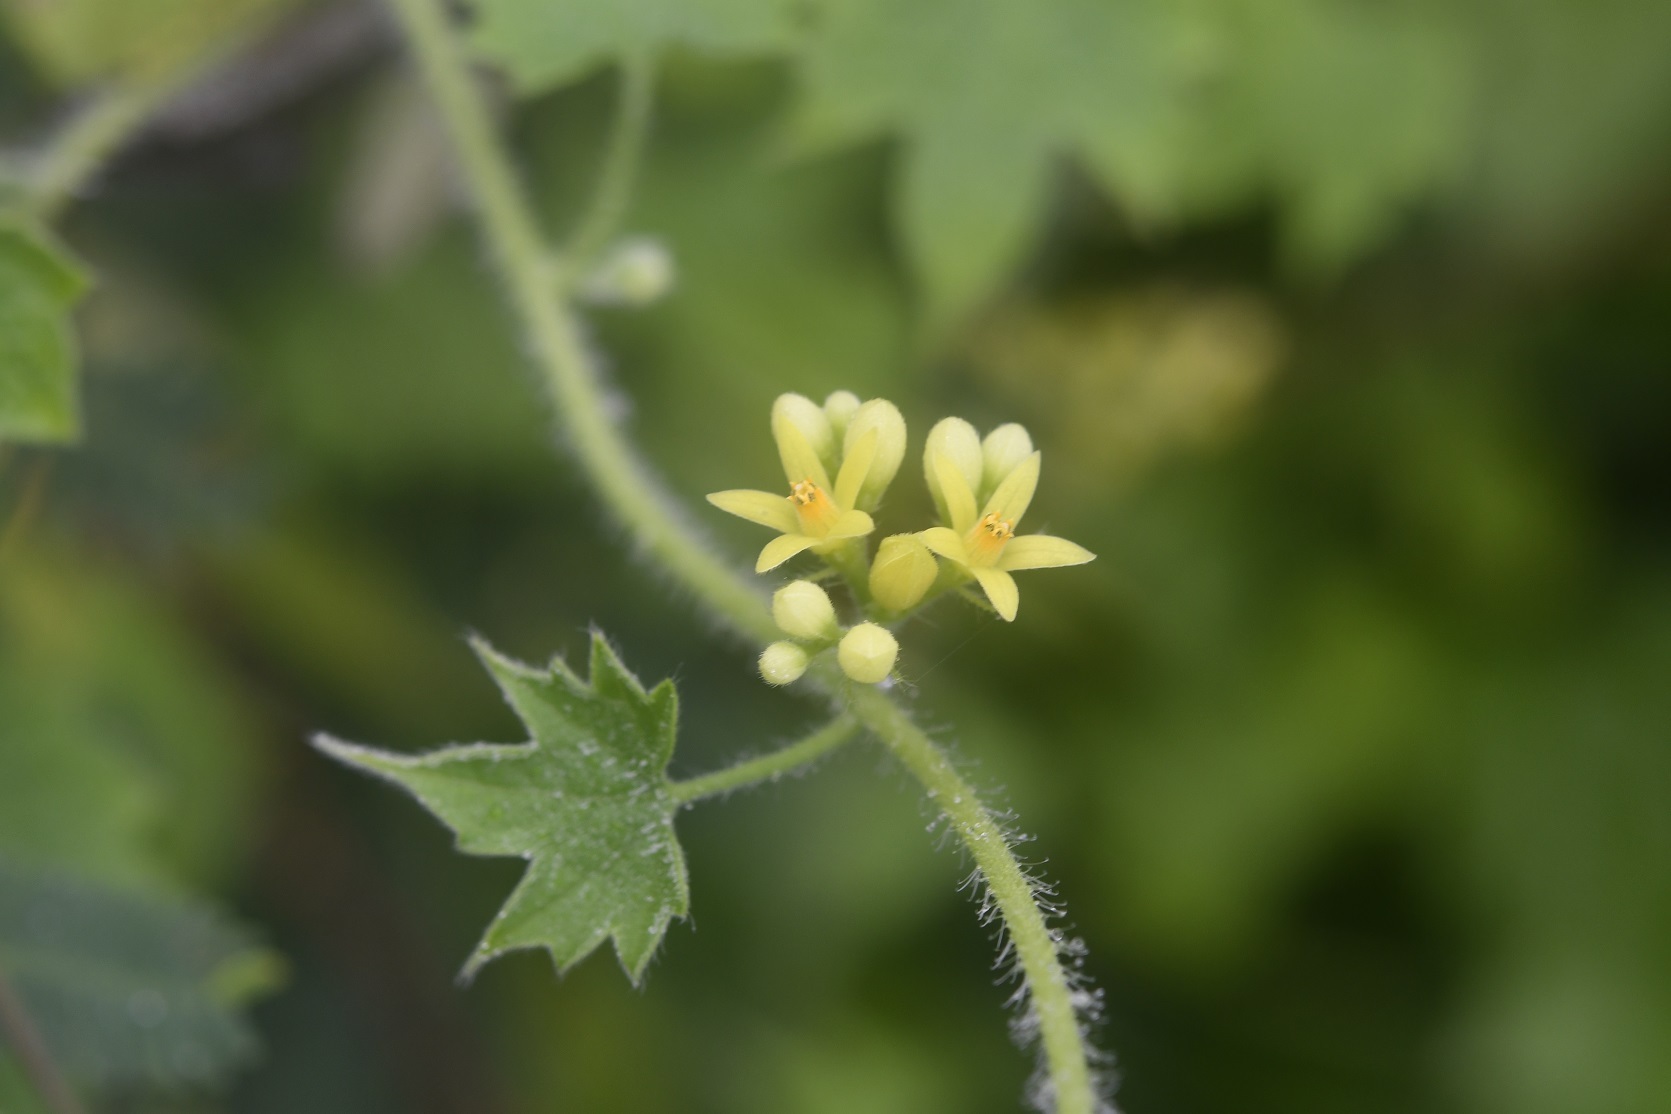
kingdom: Plantae
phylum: Tracheophyta
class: Magnoliopsida
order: Cornales
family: Loasaceae
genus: Gronovia
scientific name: Gronovia scandens
